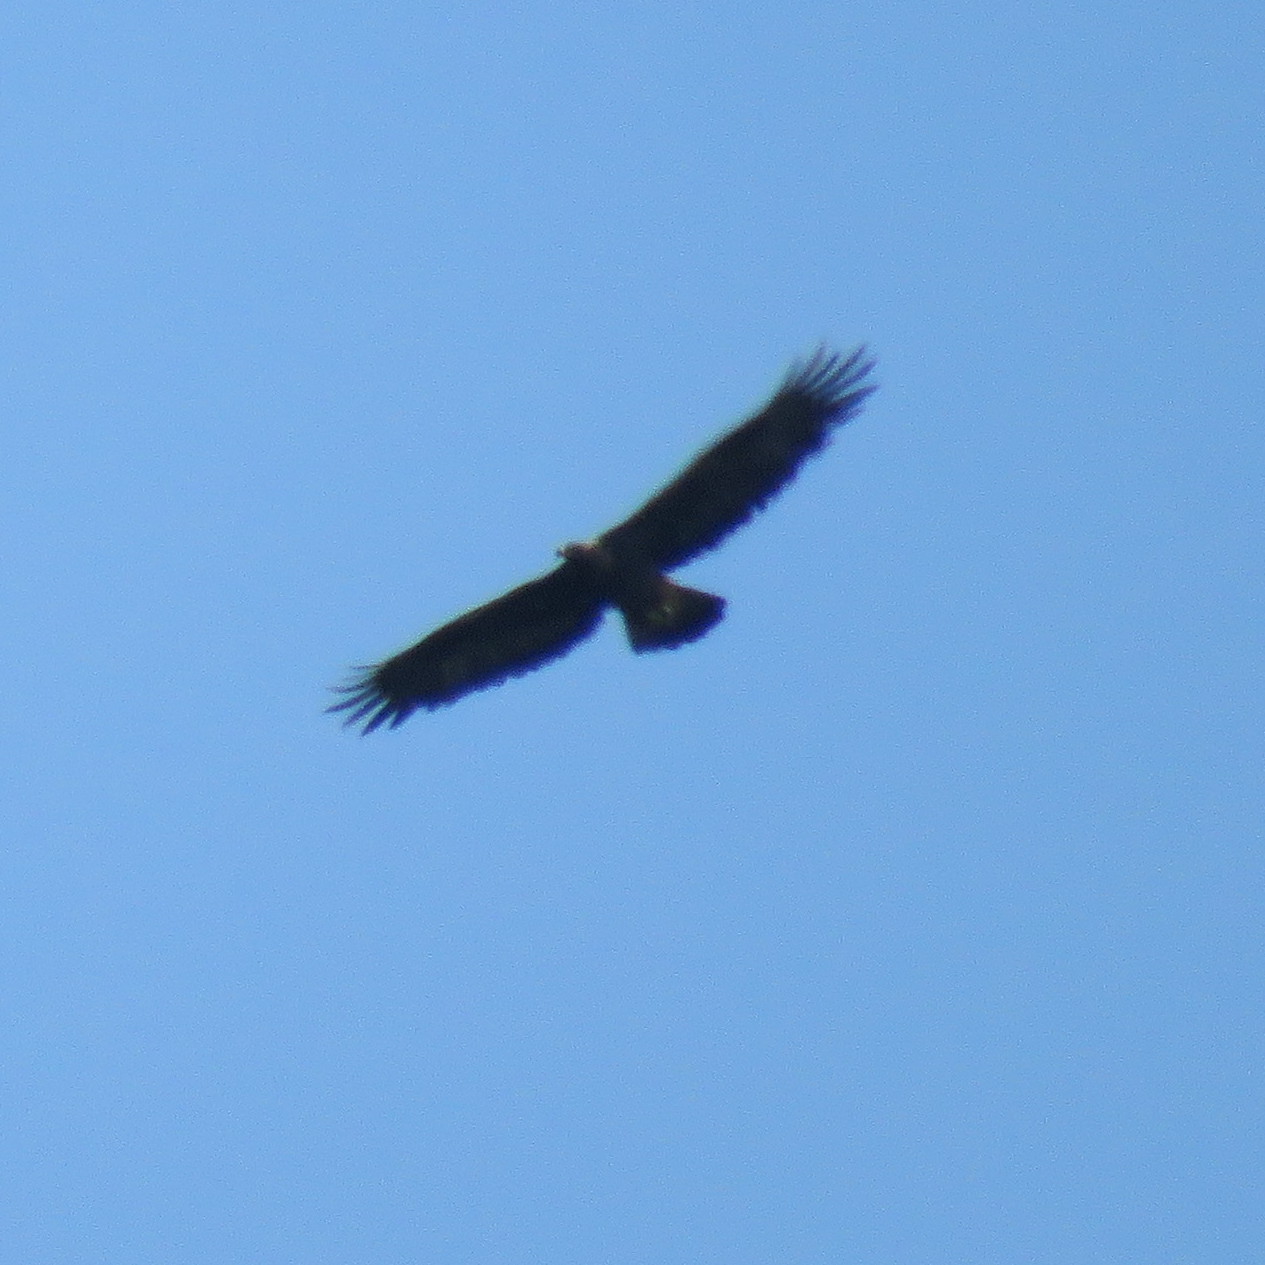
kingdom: Animalia
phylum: Chordata
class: Aves
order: Accipitriformes
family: Accipitridae
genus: Aquila
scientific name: Aquila chrysaetos
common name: Golden eagle
